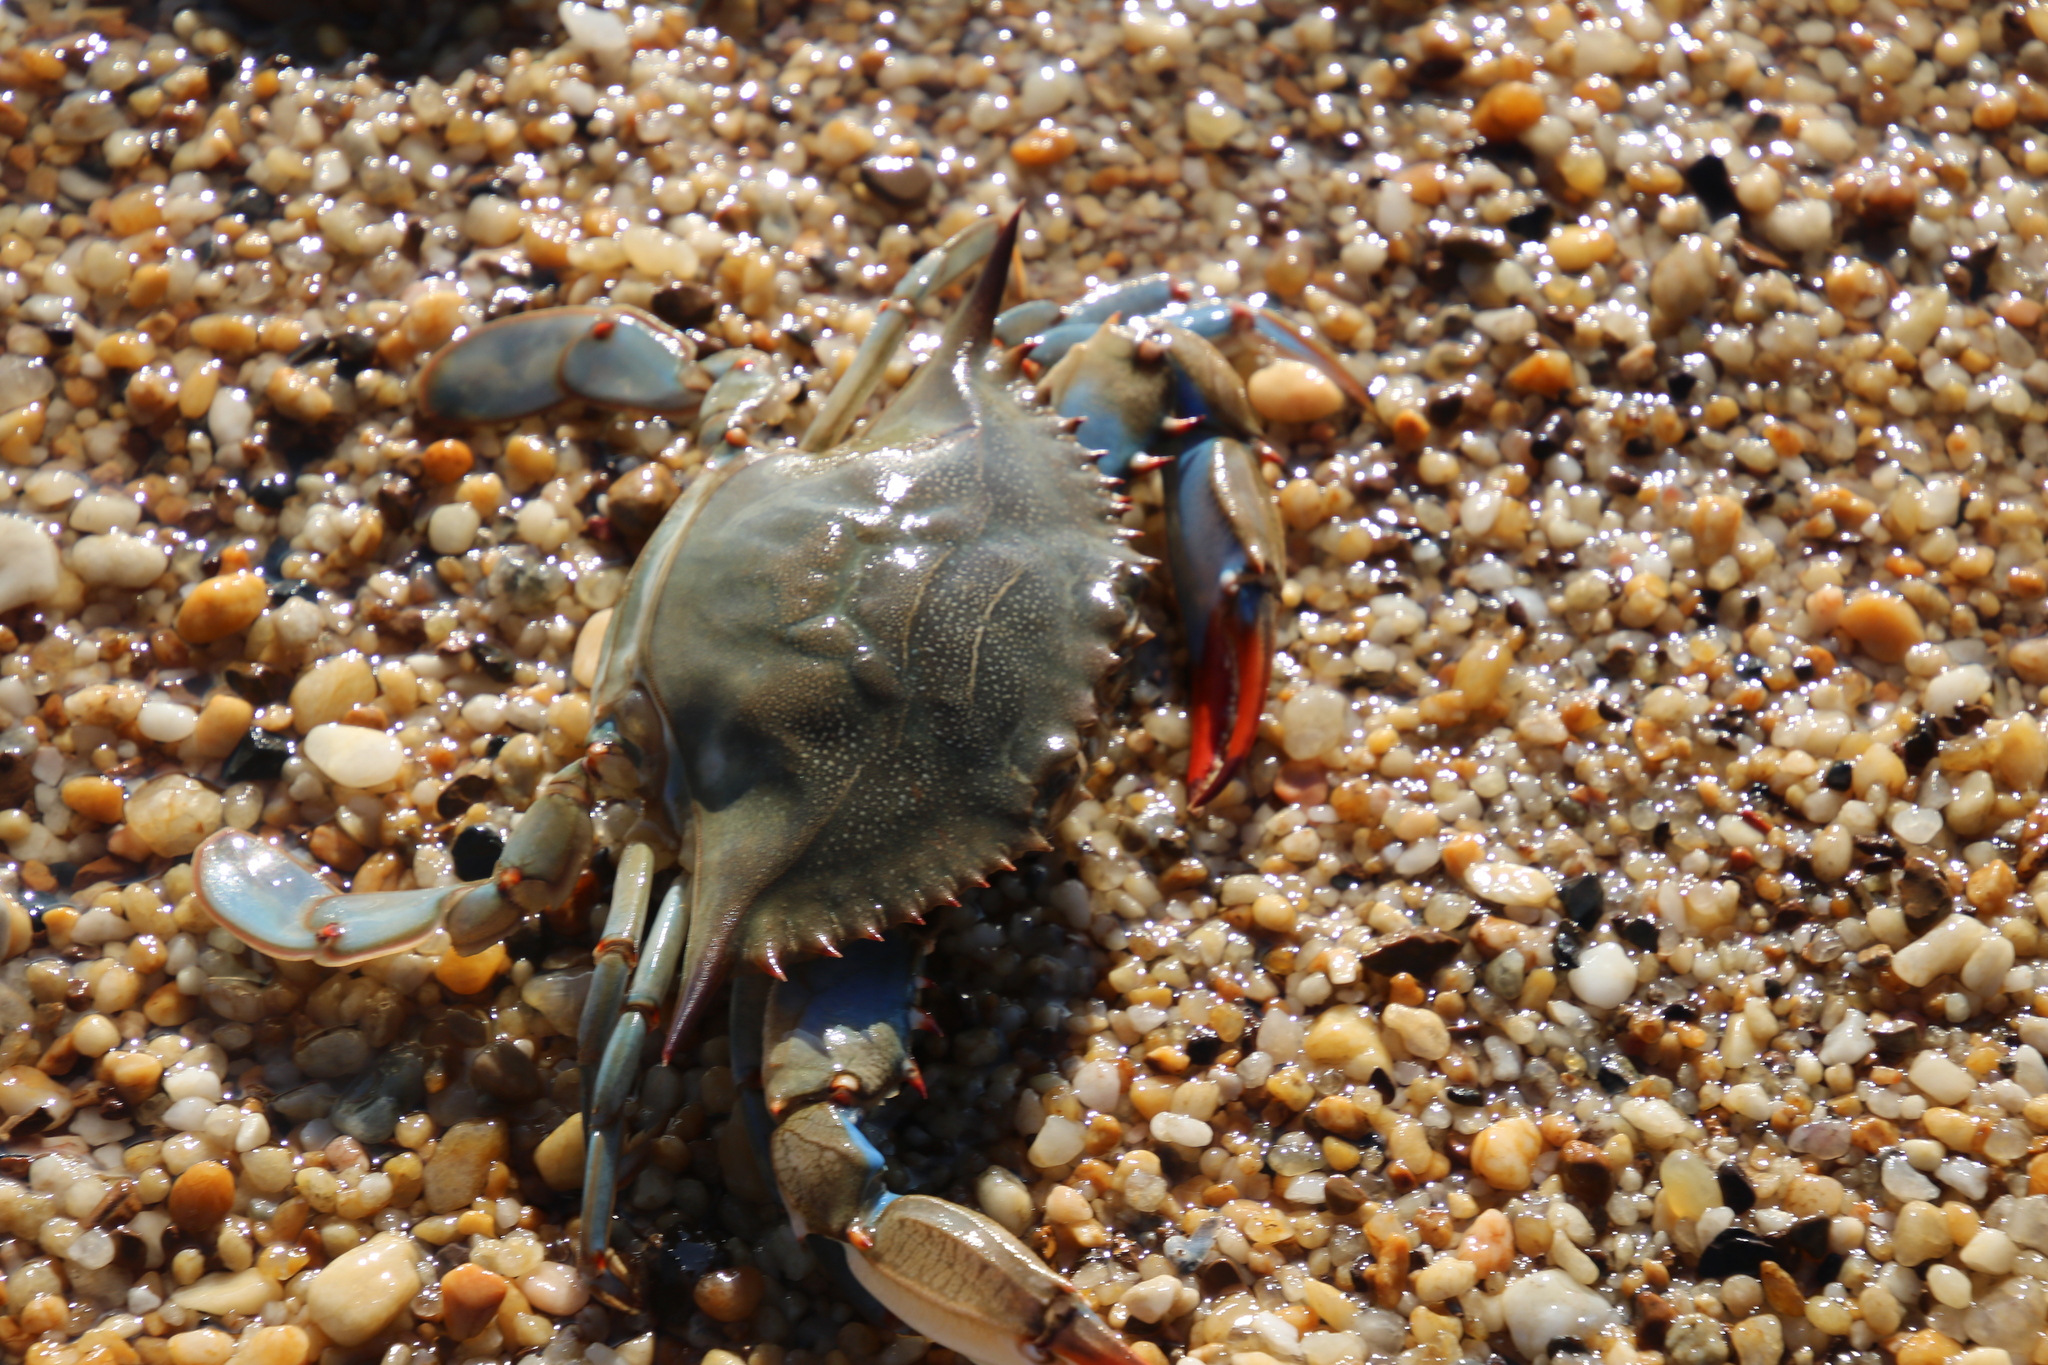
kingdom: Animalia
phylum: Arthropoda
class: Malacostraca
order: Decapoda
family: Portunidae
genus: Callinectes
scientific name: Callinectes sapidus
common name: Blue crab
